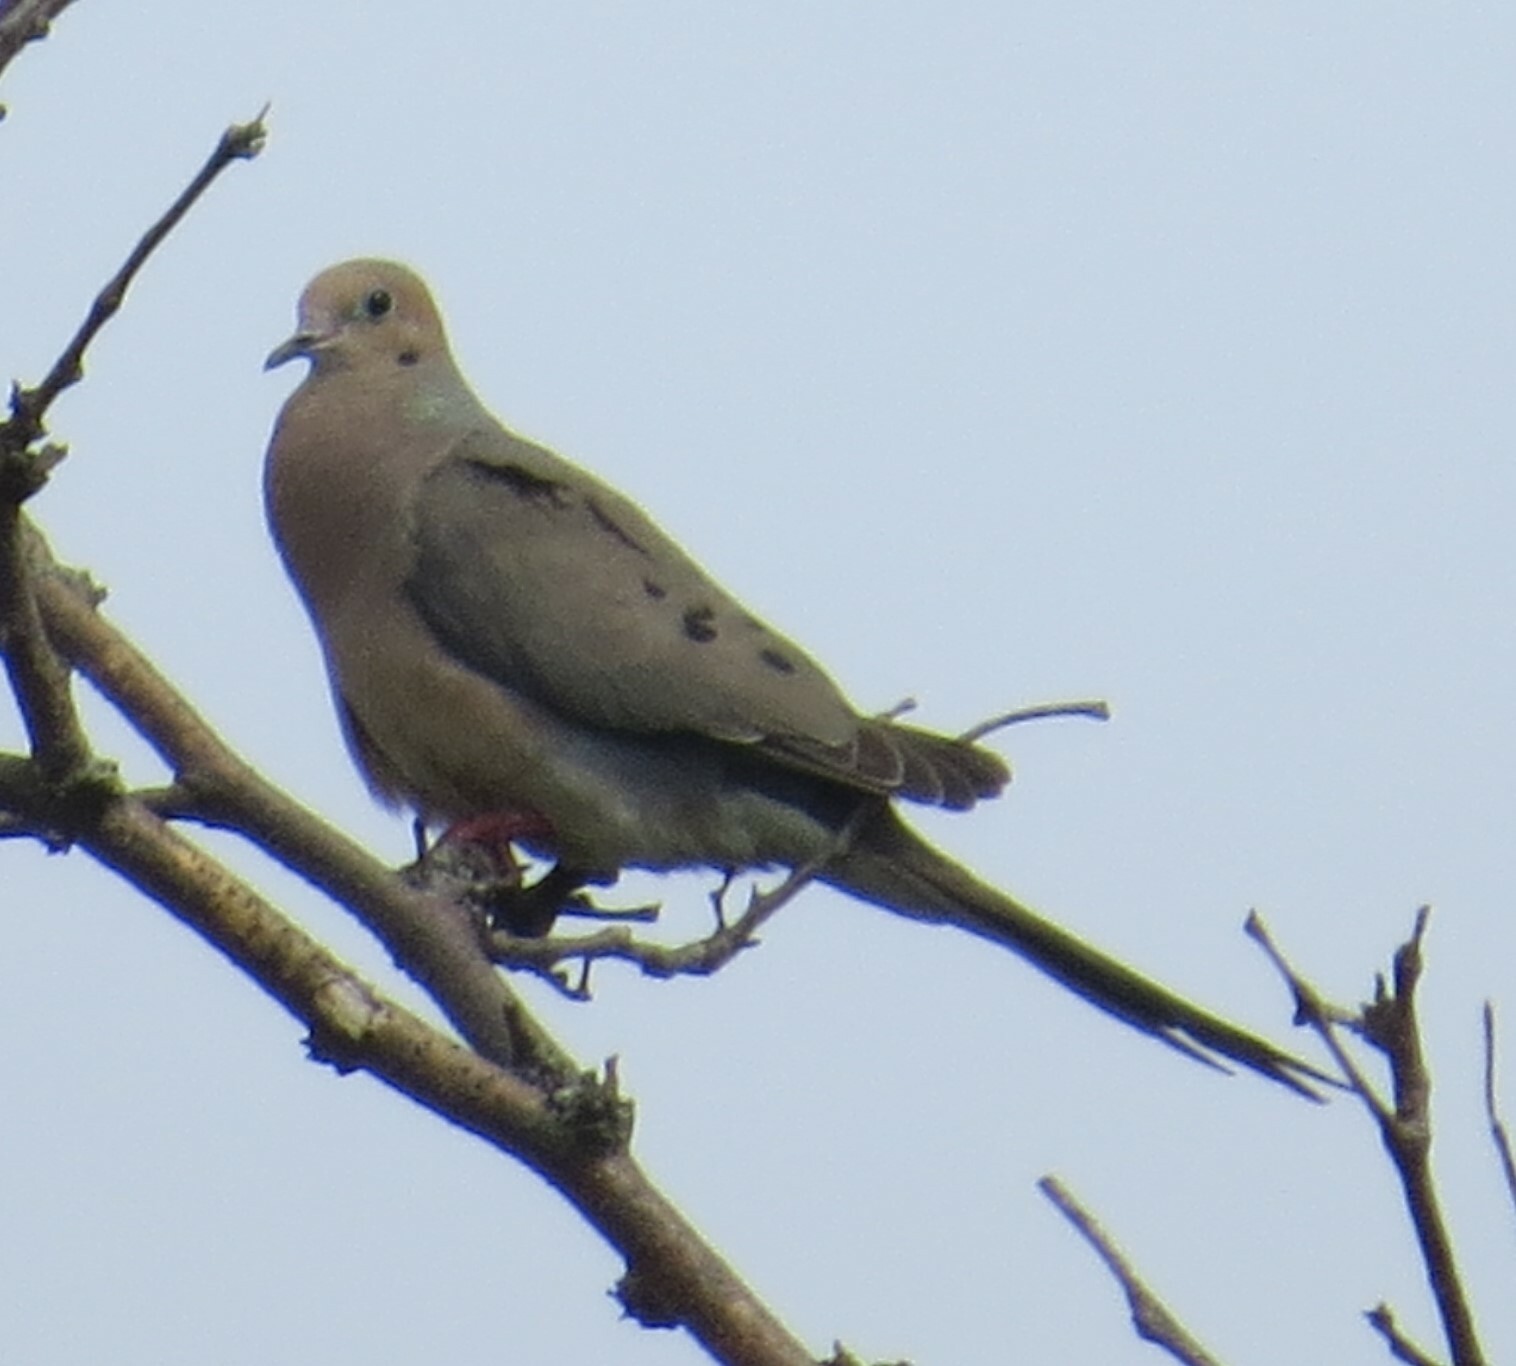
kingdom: Animalia
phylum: Chordata
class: Aves
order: Columbiformes
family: Columbidae
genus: Zenaida
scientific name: Zenaida macroura
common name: Mourning dove
